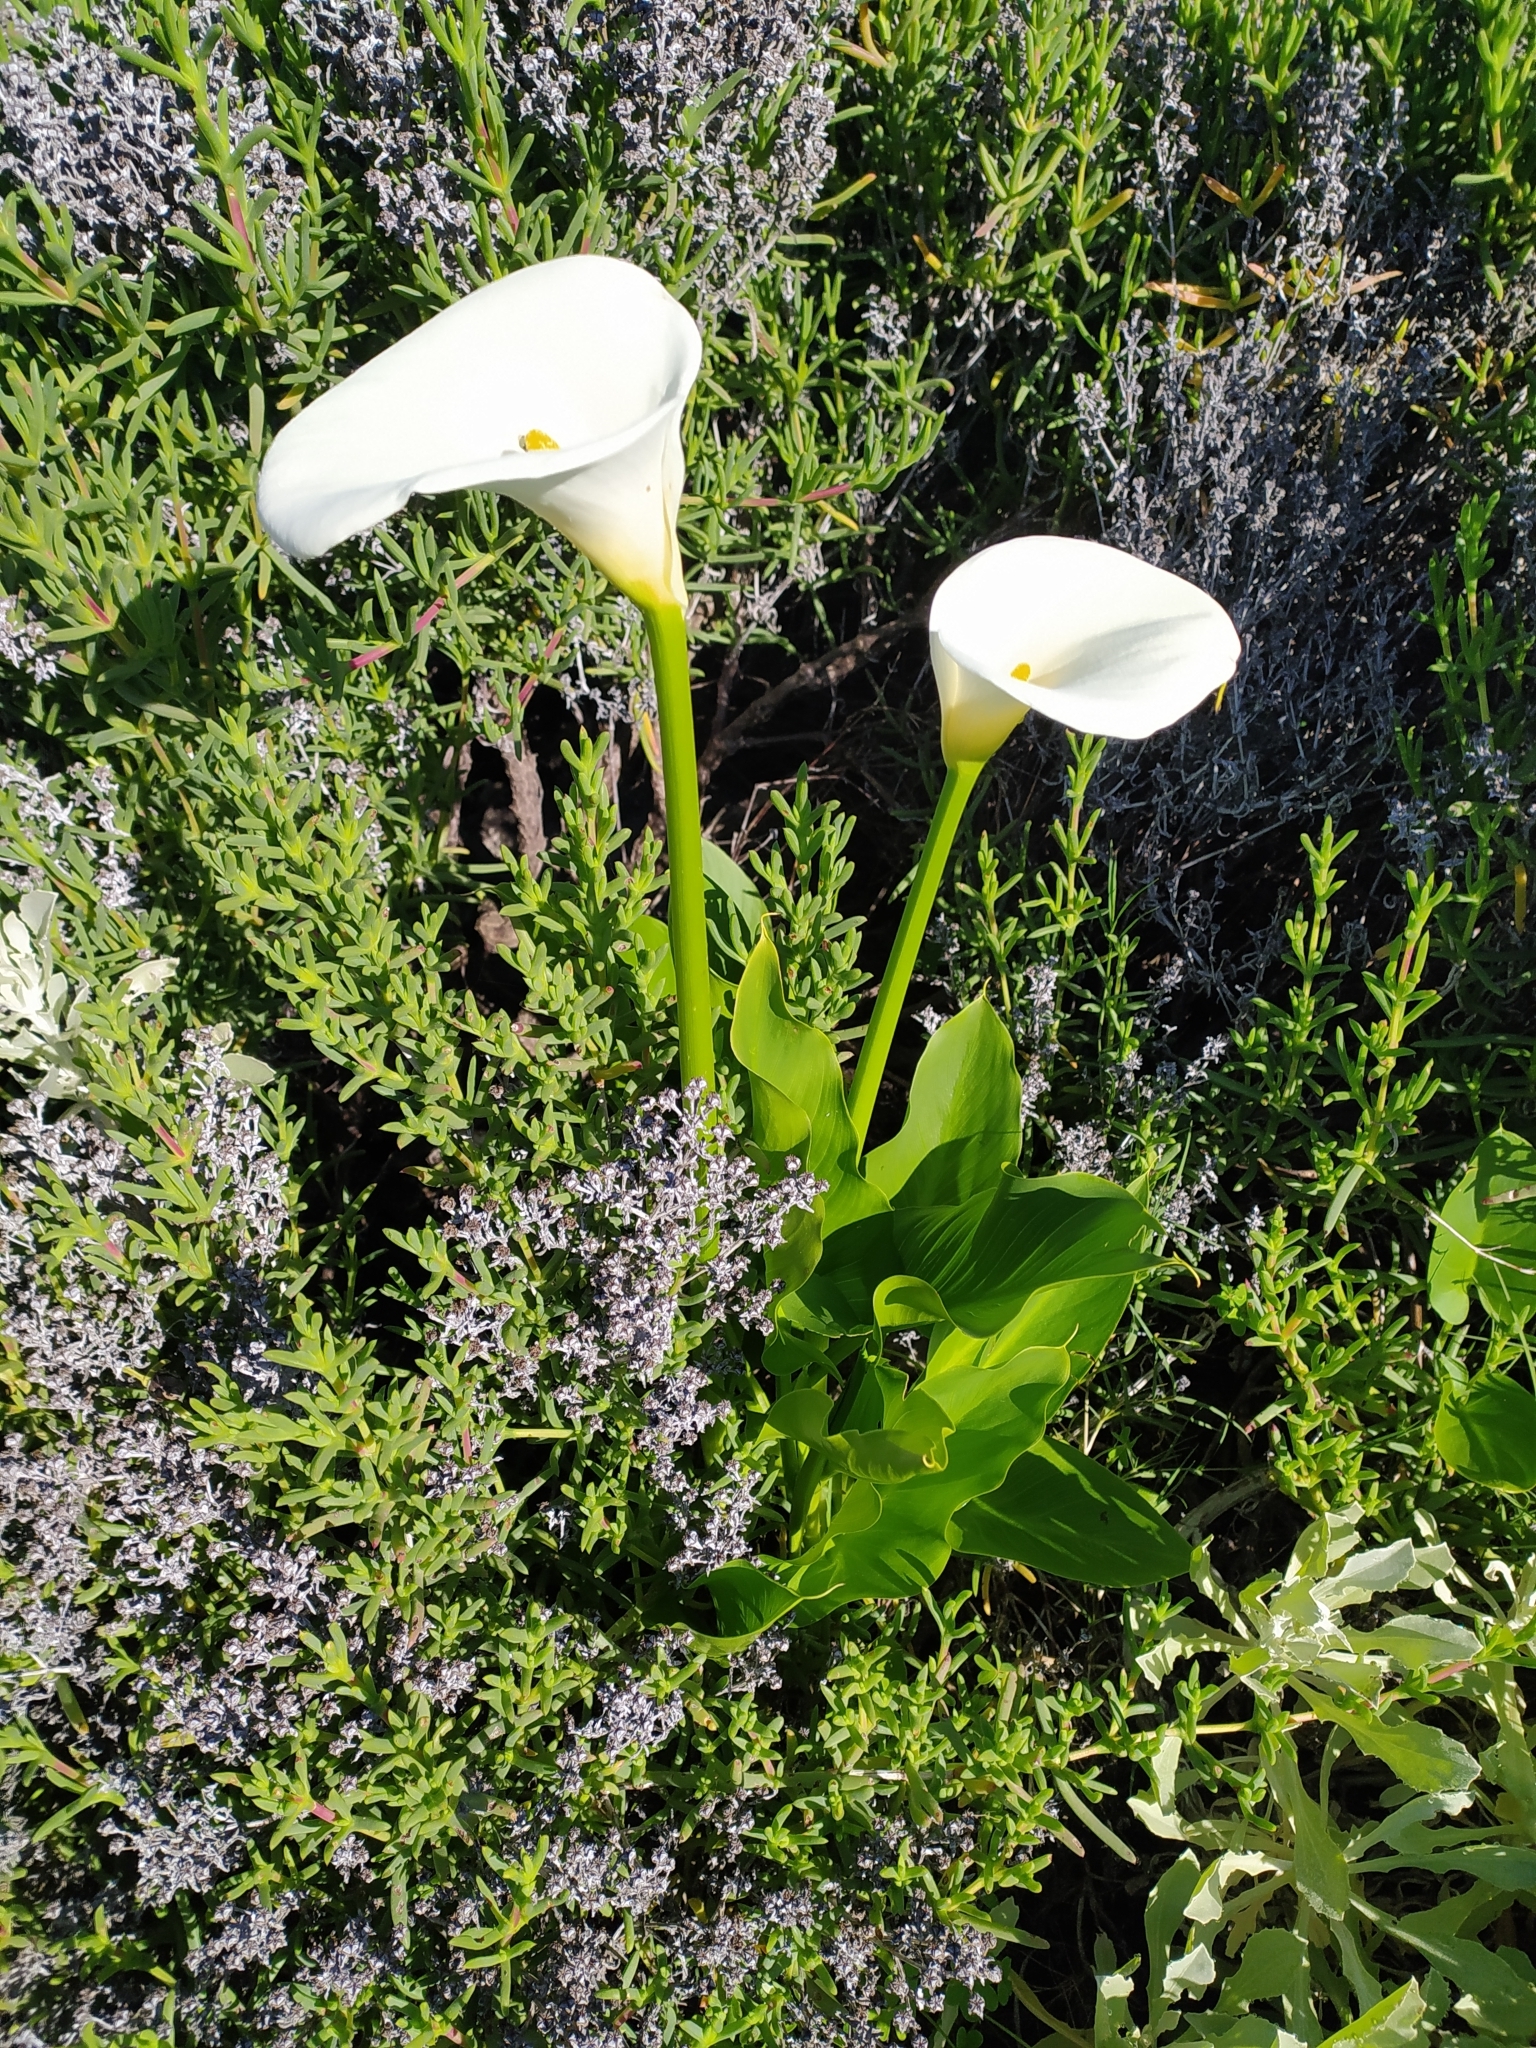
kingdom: Plantae
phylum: Tracheophyta
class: Liliopsida
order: Alismatales
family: Araceae
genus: Zantedeschia
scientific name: Zantedeschia aethiopica
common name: Altar-lily
